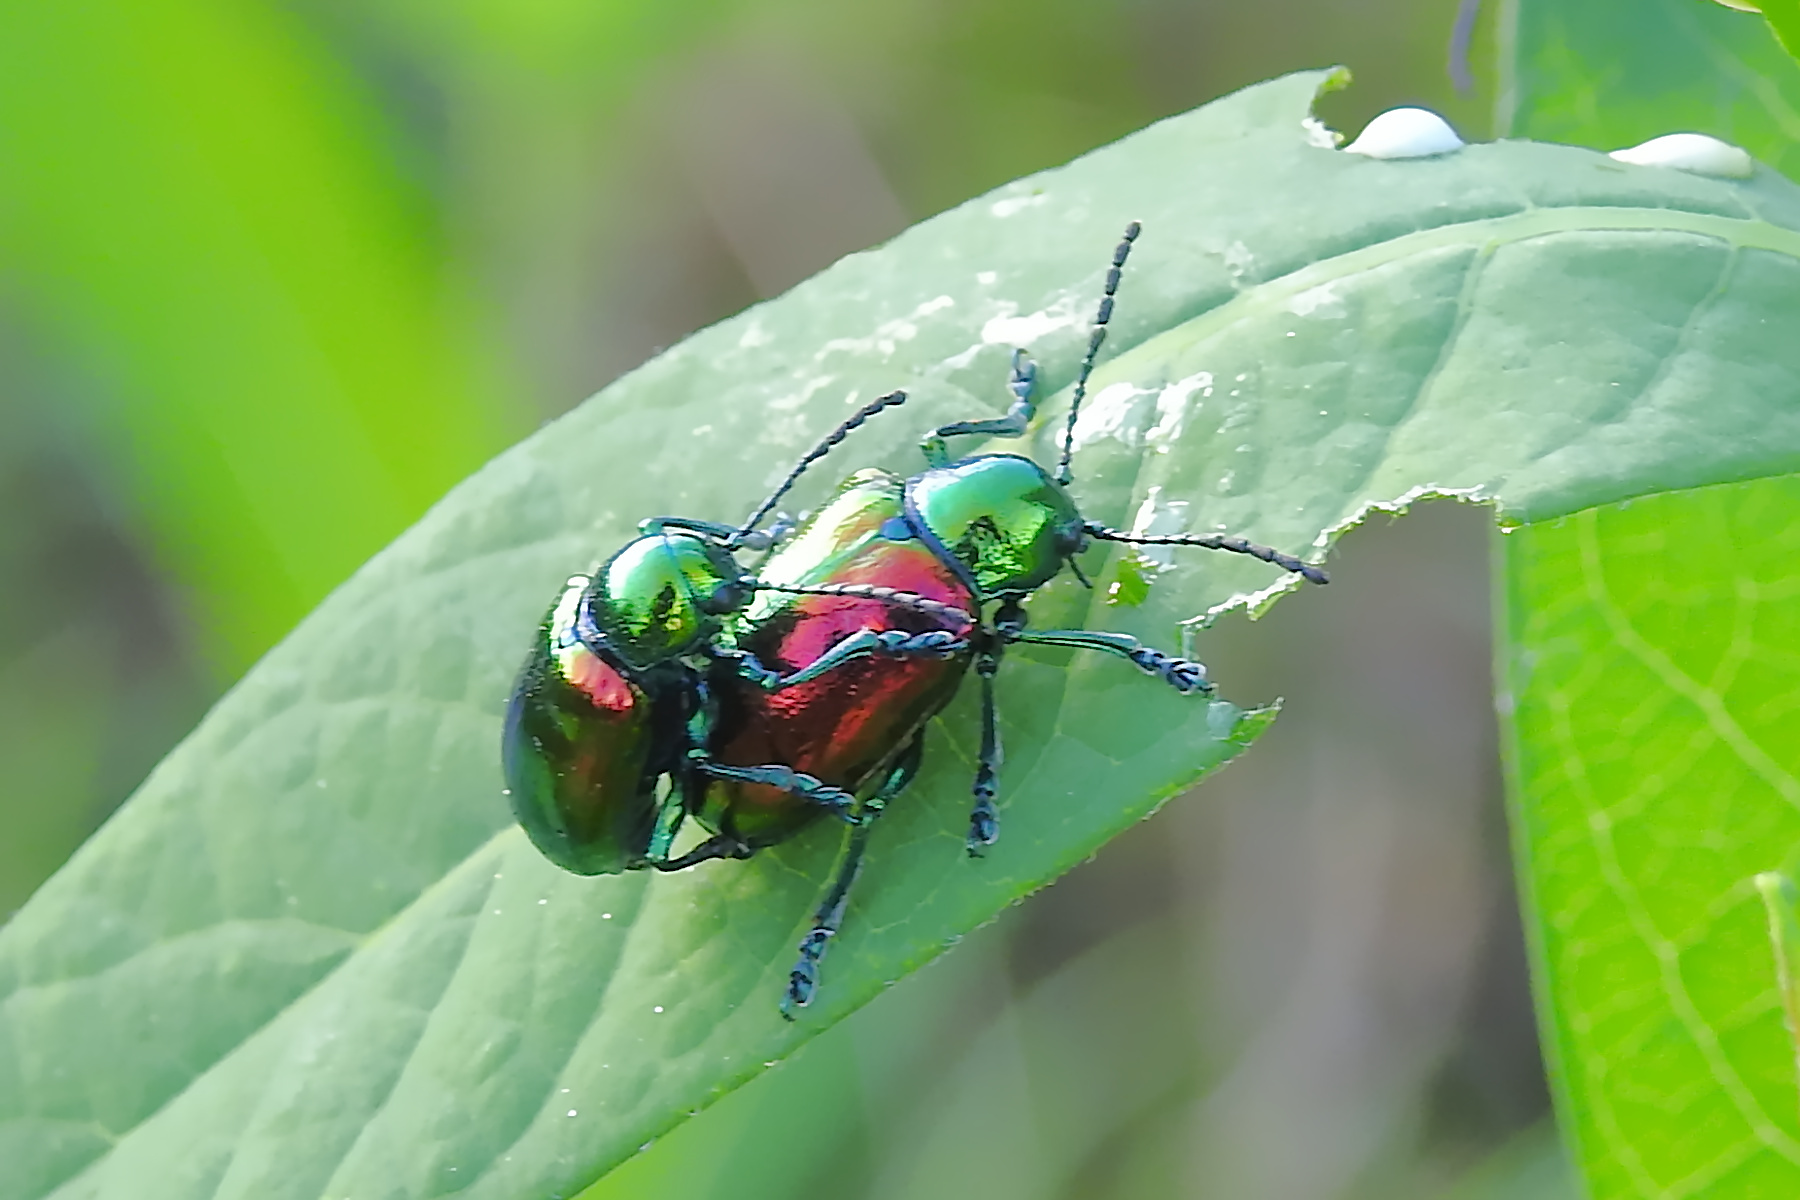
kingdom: Animalia
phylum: Arthropoda
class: Insecta
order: Coleoptera
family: Chrysomelidae
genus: Chrysochus
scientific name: Chrysochus auratus
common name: Dogbane leaf beetle
